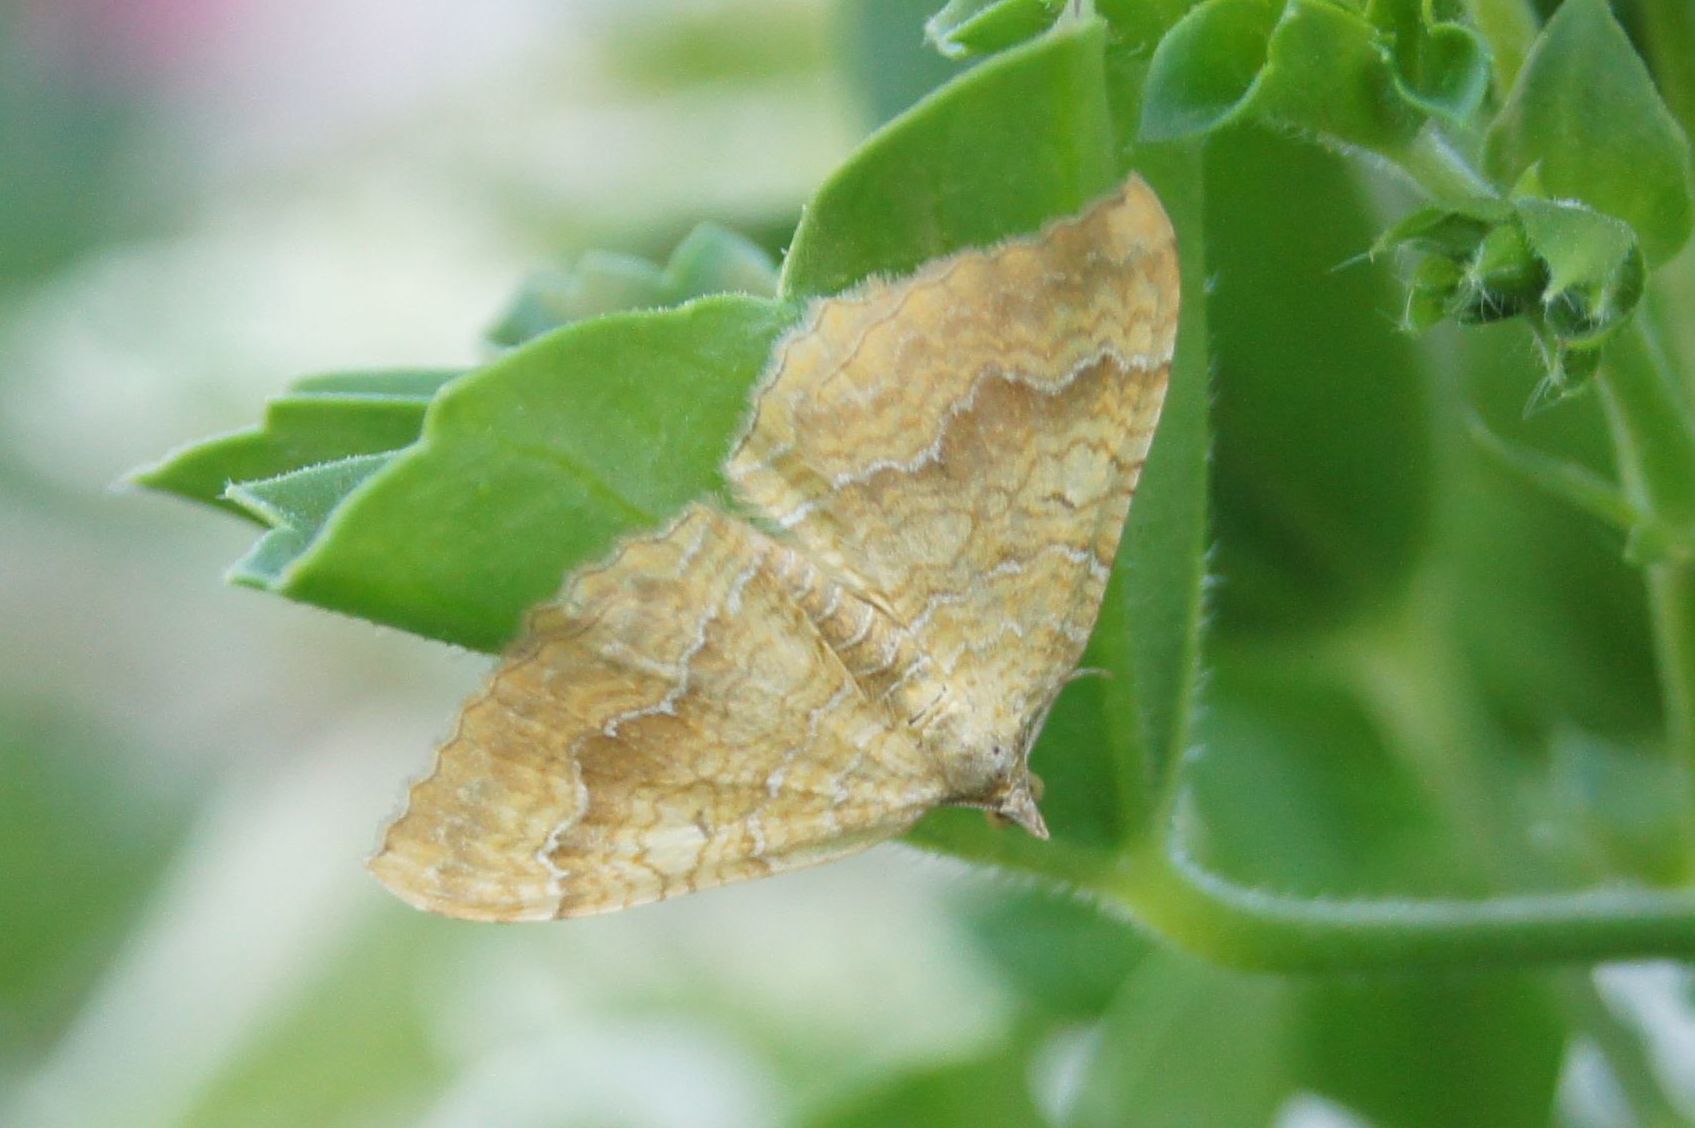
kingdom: Animalia
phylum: Arthropoda
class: Insecta
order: Lepidoptera
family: Geometridae
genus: Camptogramma
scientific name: Camptogramma bilineata
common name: Yellow shell
